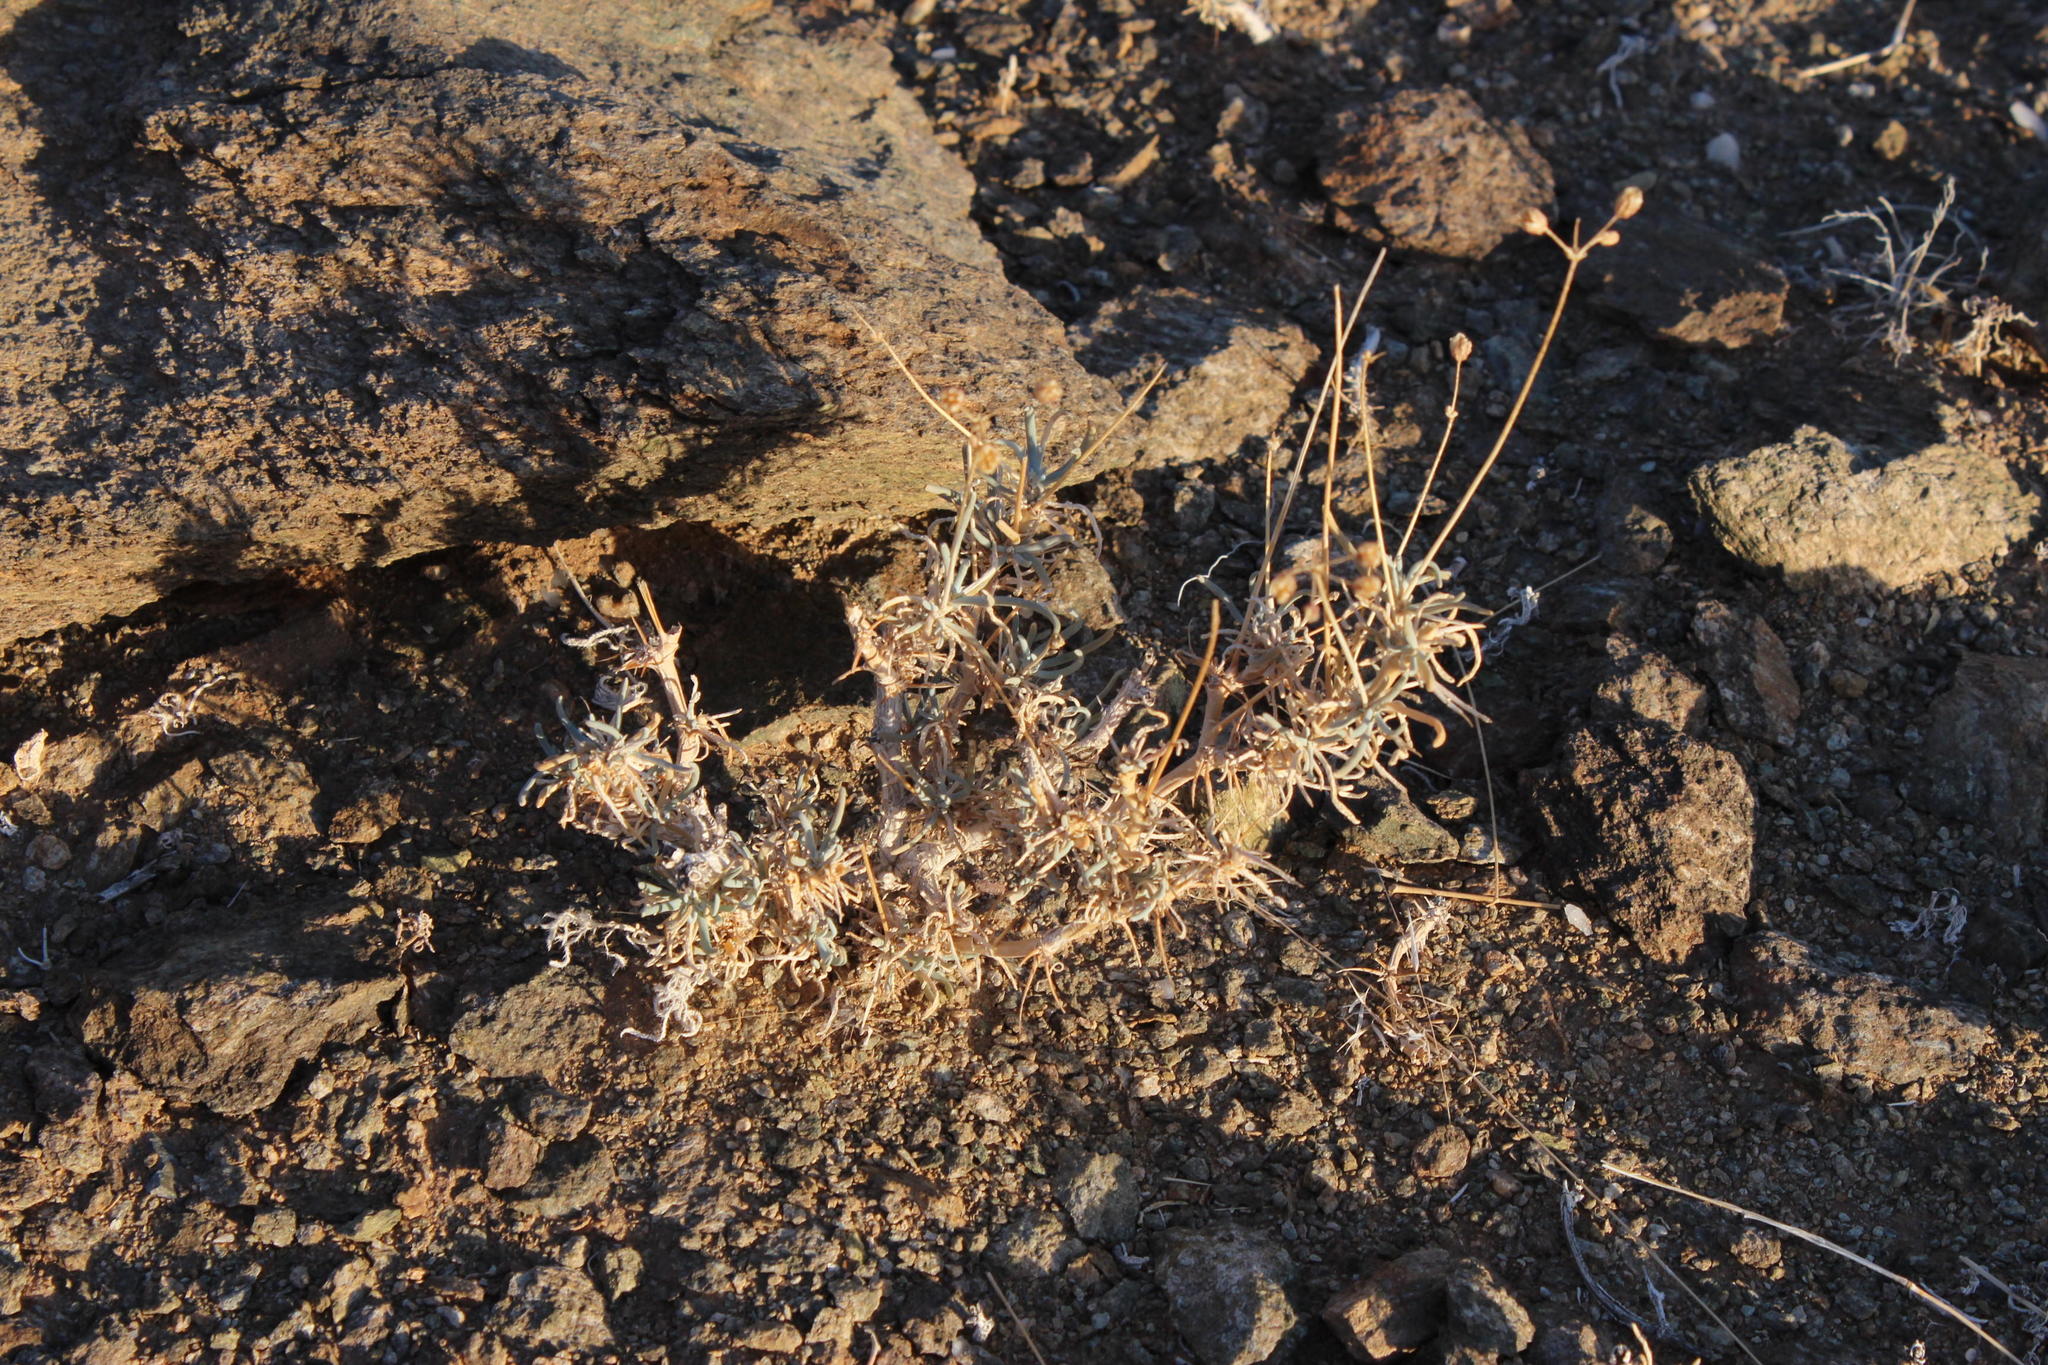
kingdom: Plantae
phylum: Tracheophyta
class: Magnoliopsida
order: Caryophyllales
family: Kewaceae
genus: Kewa
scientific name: Kewa salsoloides
